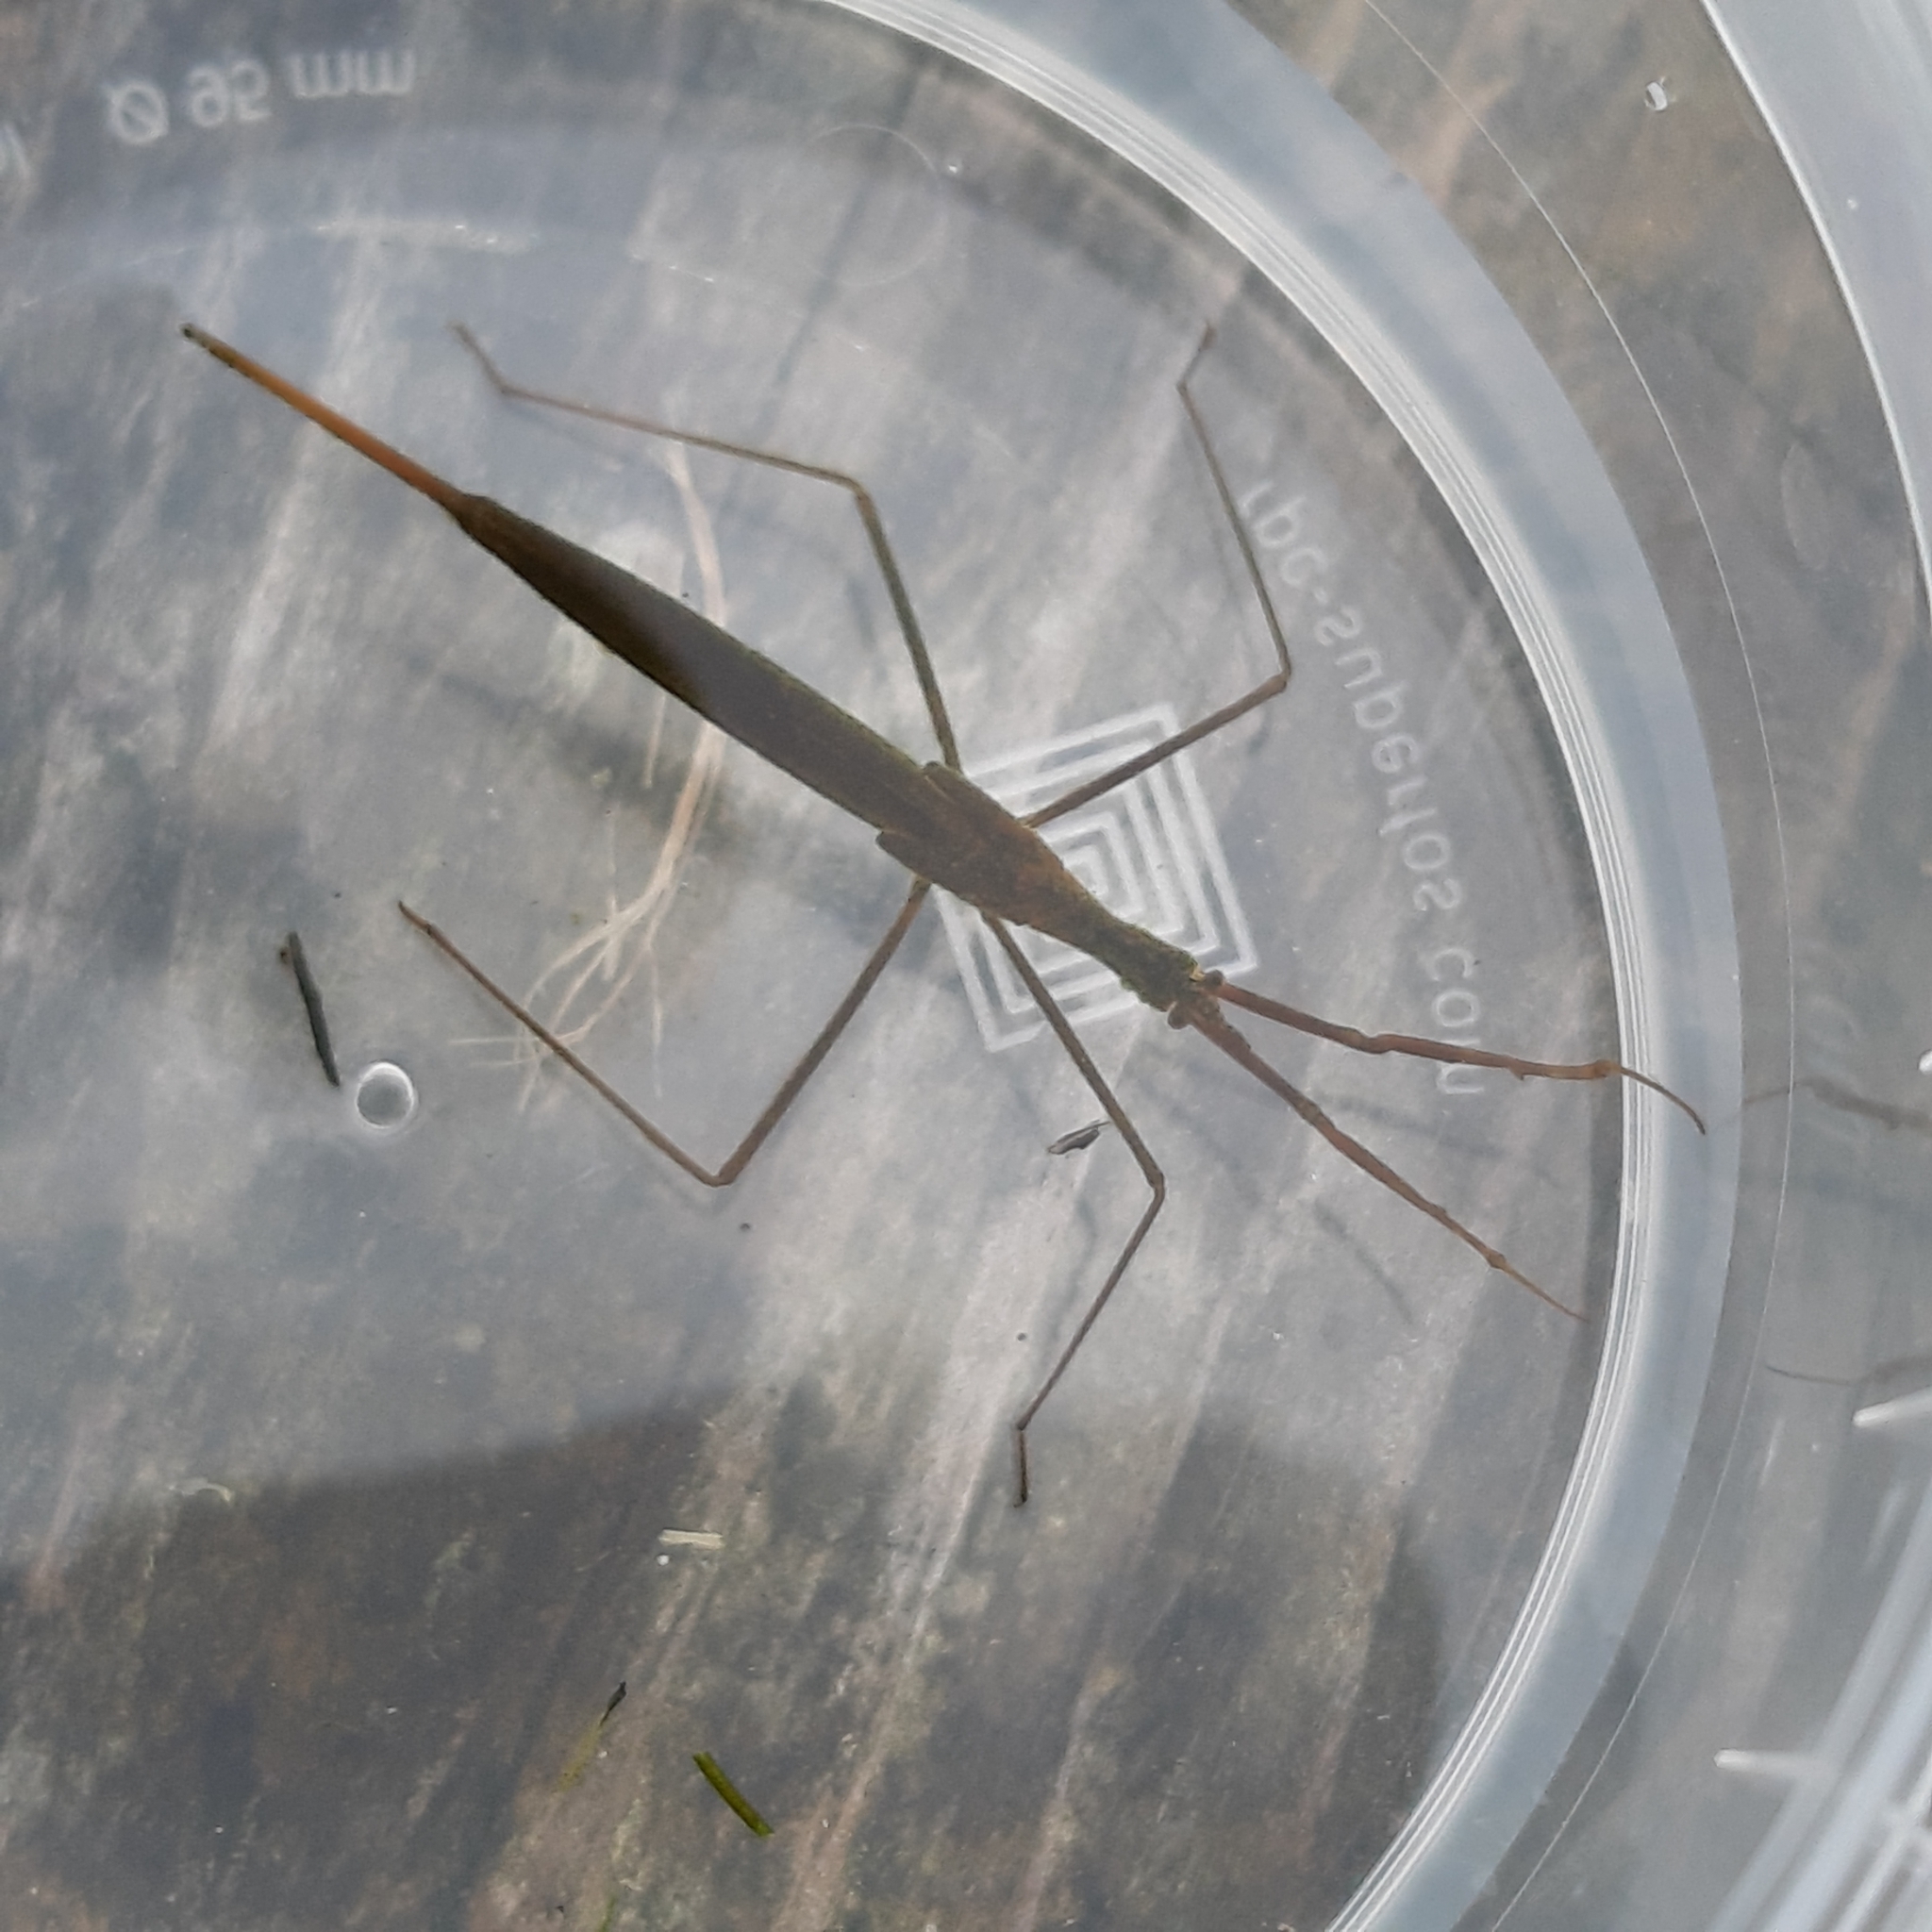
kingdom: Animalia
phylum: Arthropoda
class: Insecta
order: Hemiptera
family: Nepidae
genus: Ranatra
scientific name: Ranatra linearis
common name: Water stick insect
